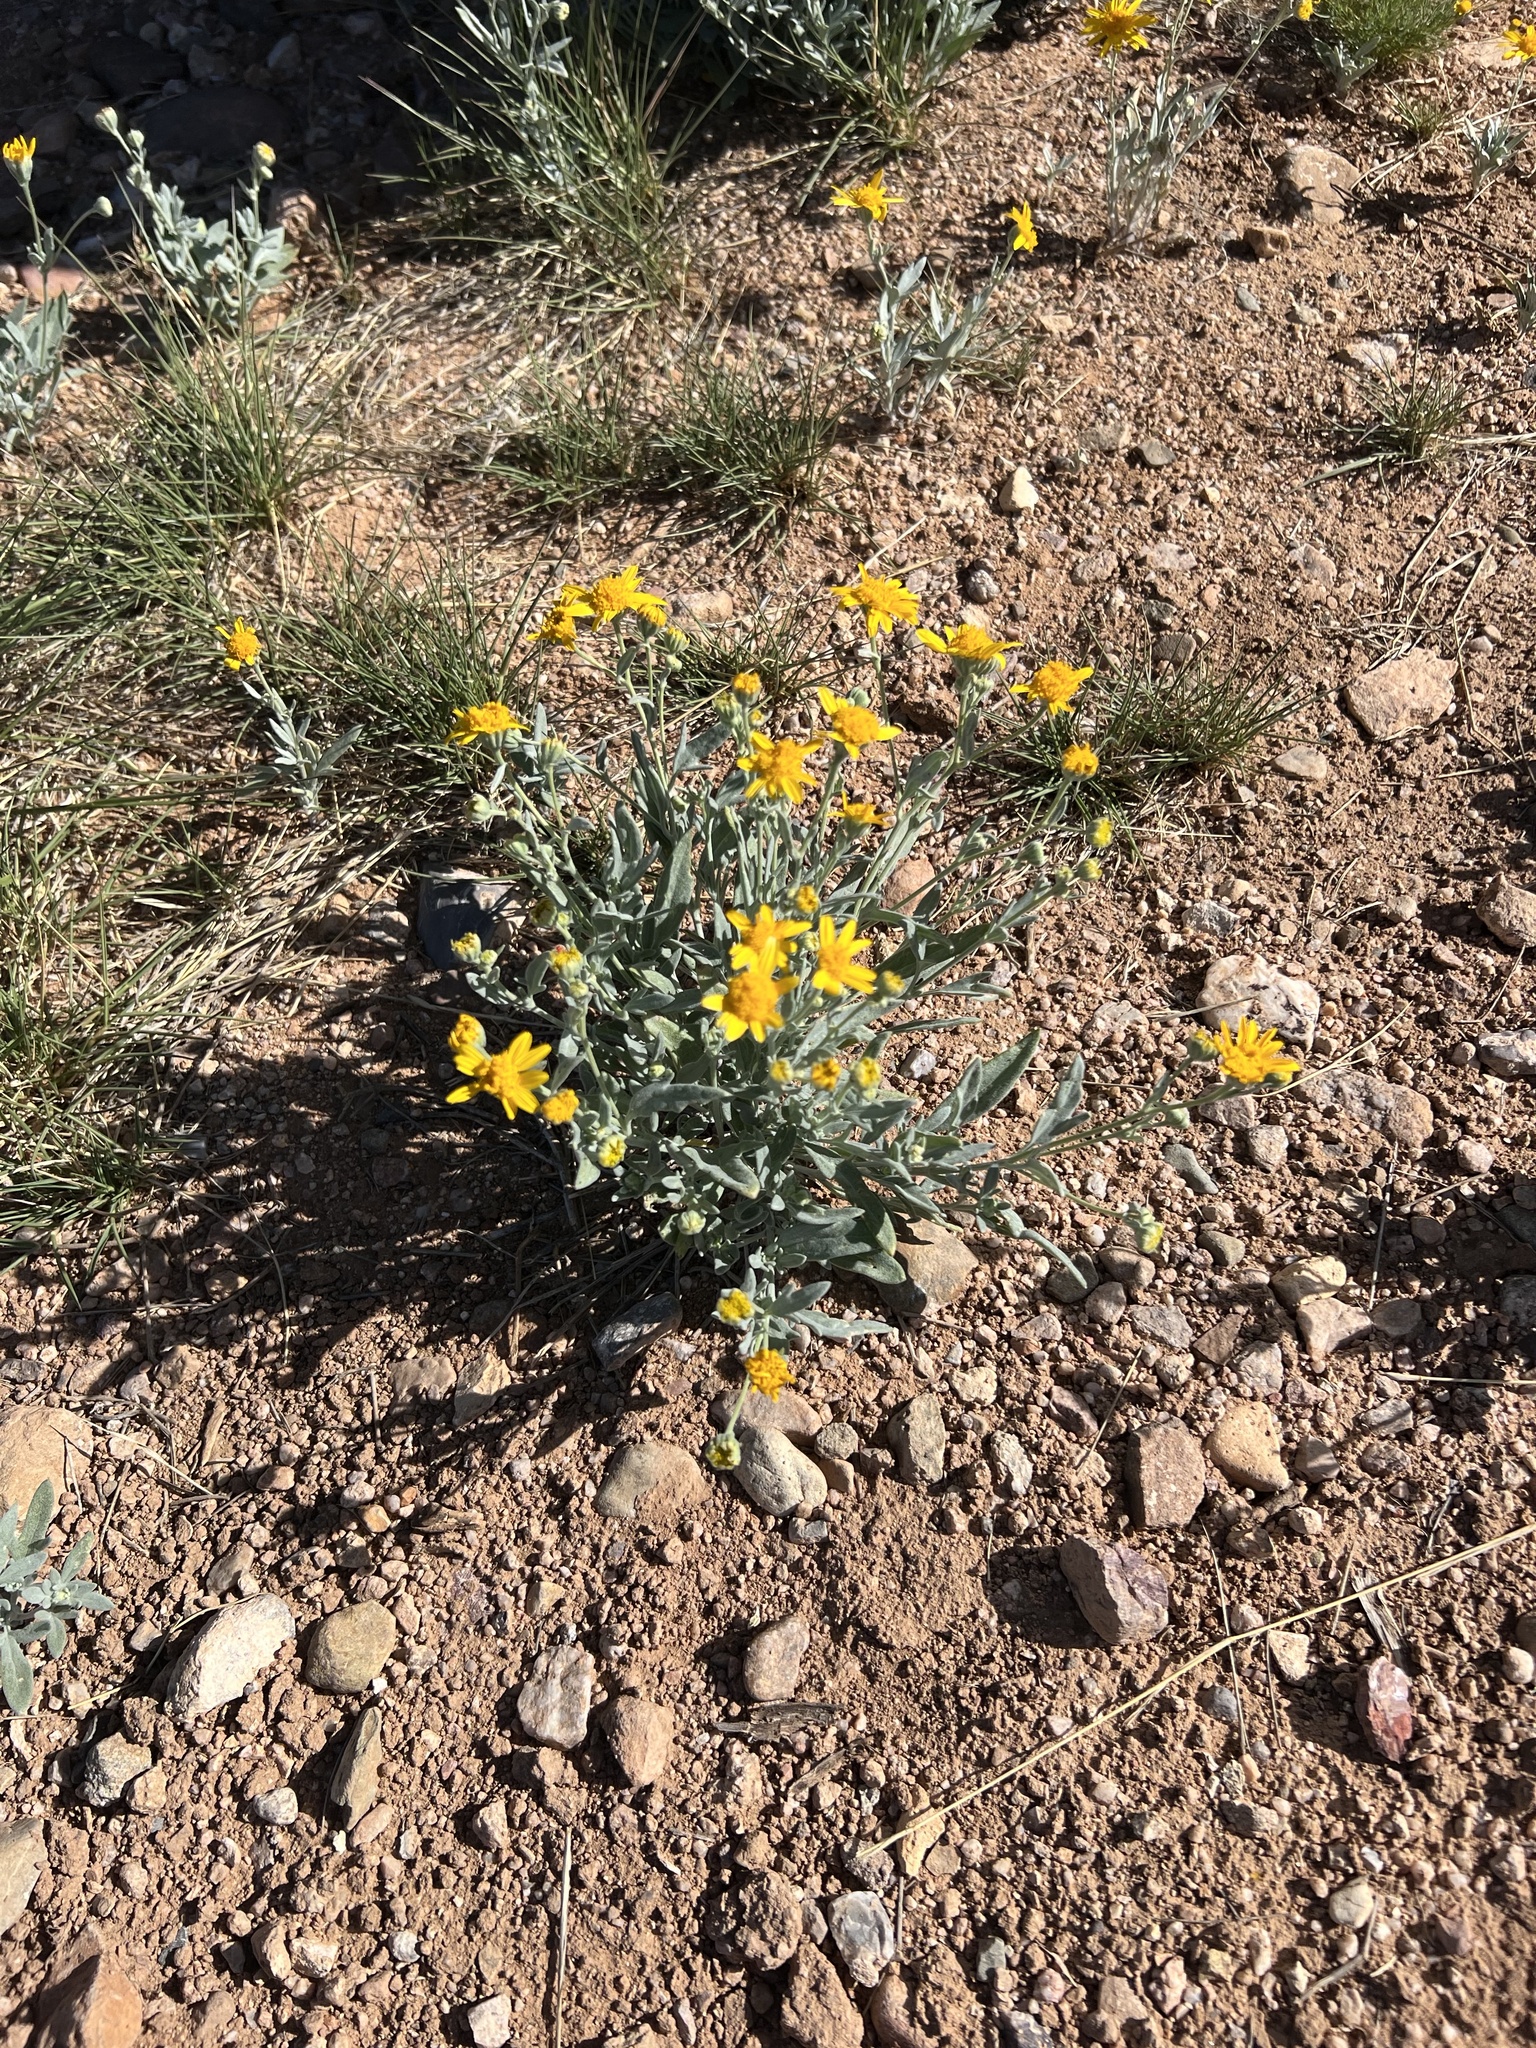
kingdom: Plantae
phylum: Tracheophyta
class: Magnoliopsida
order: Asterales
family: Asteraceae
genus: Picradeniopsis
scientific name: Picradeniopsis absinthifolia
